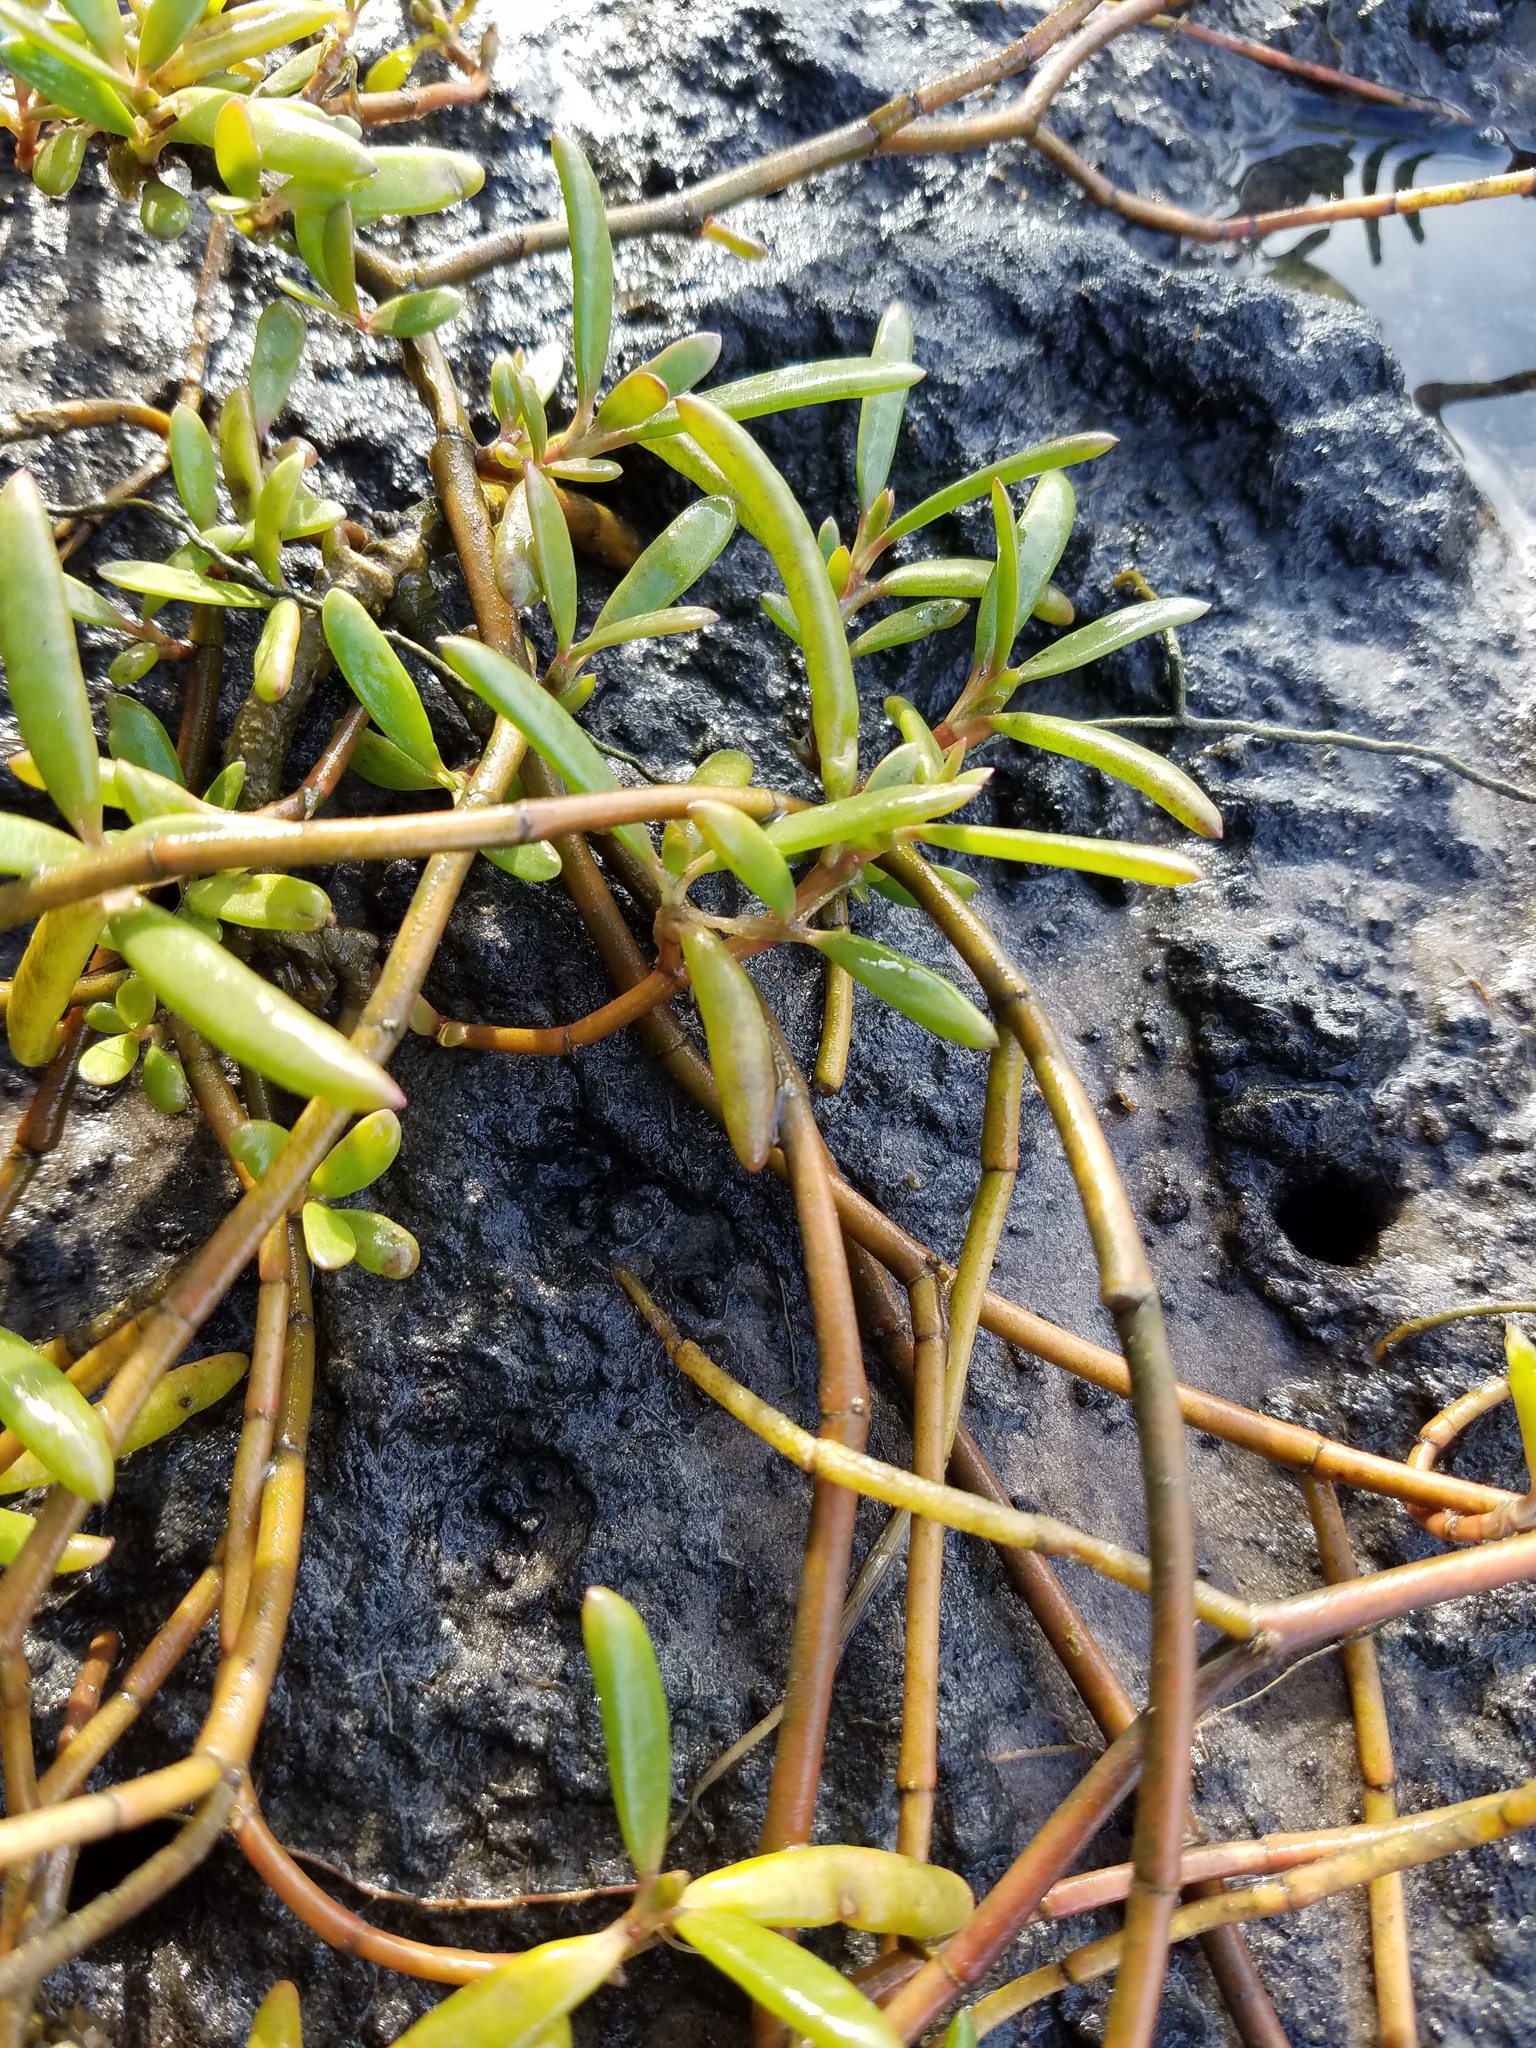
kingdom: Plantae
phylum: Tracheophyta
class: Magnoliopsida
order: Caryophyllales
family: Aizoaceae
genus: Sesuvium
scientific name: Sesuvium portulacastrum
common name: Sea-purslane
